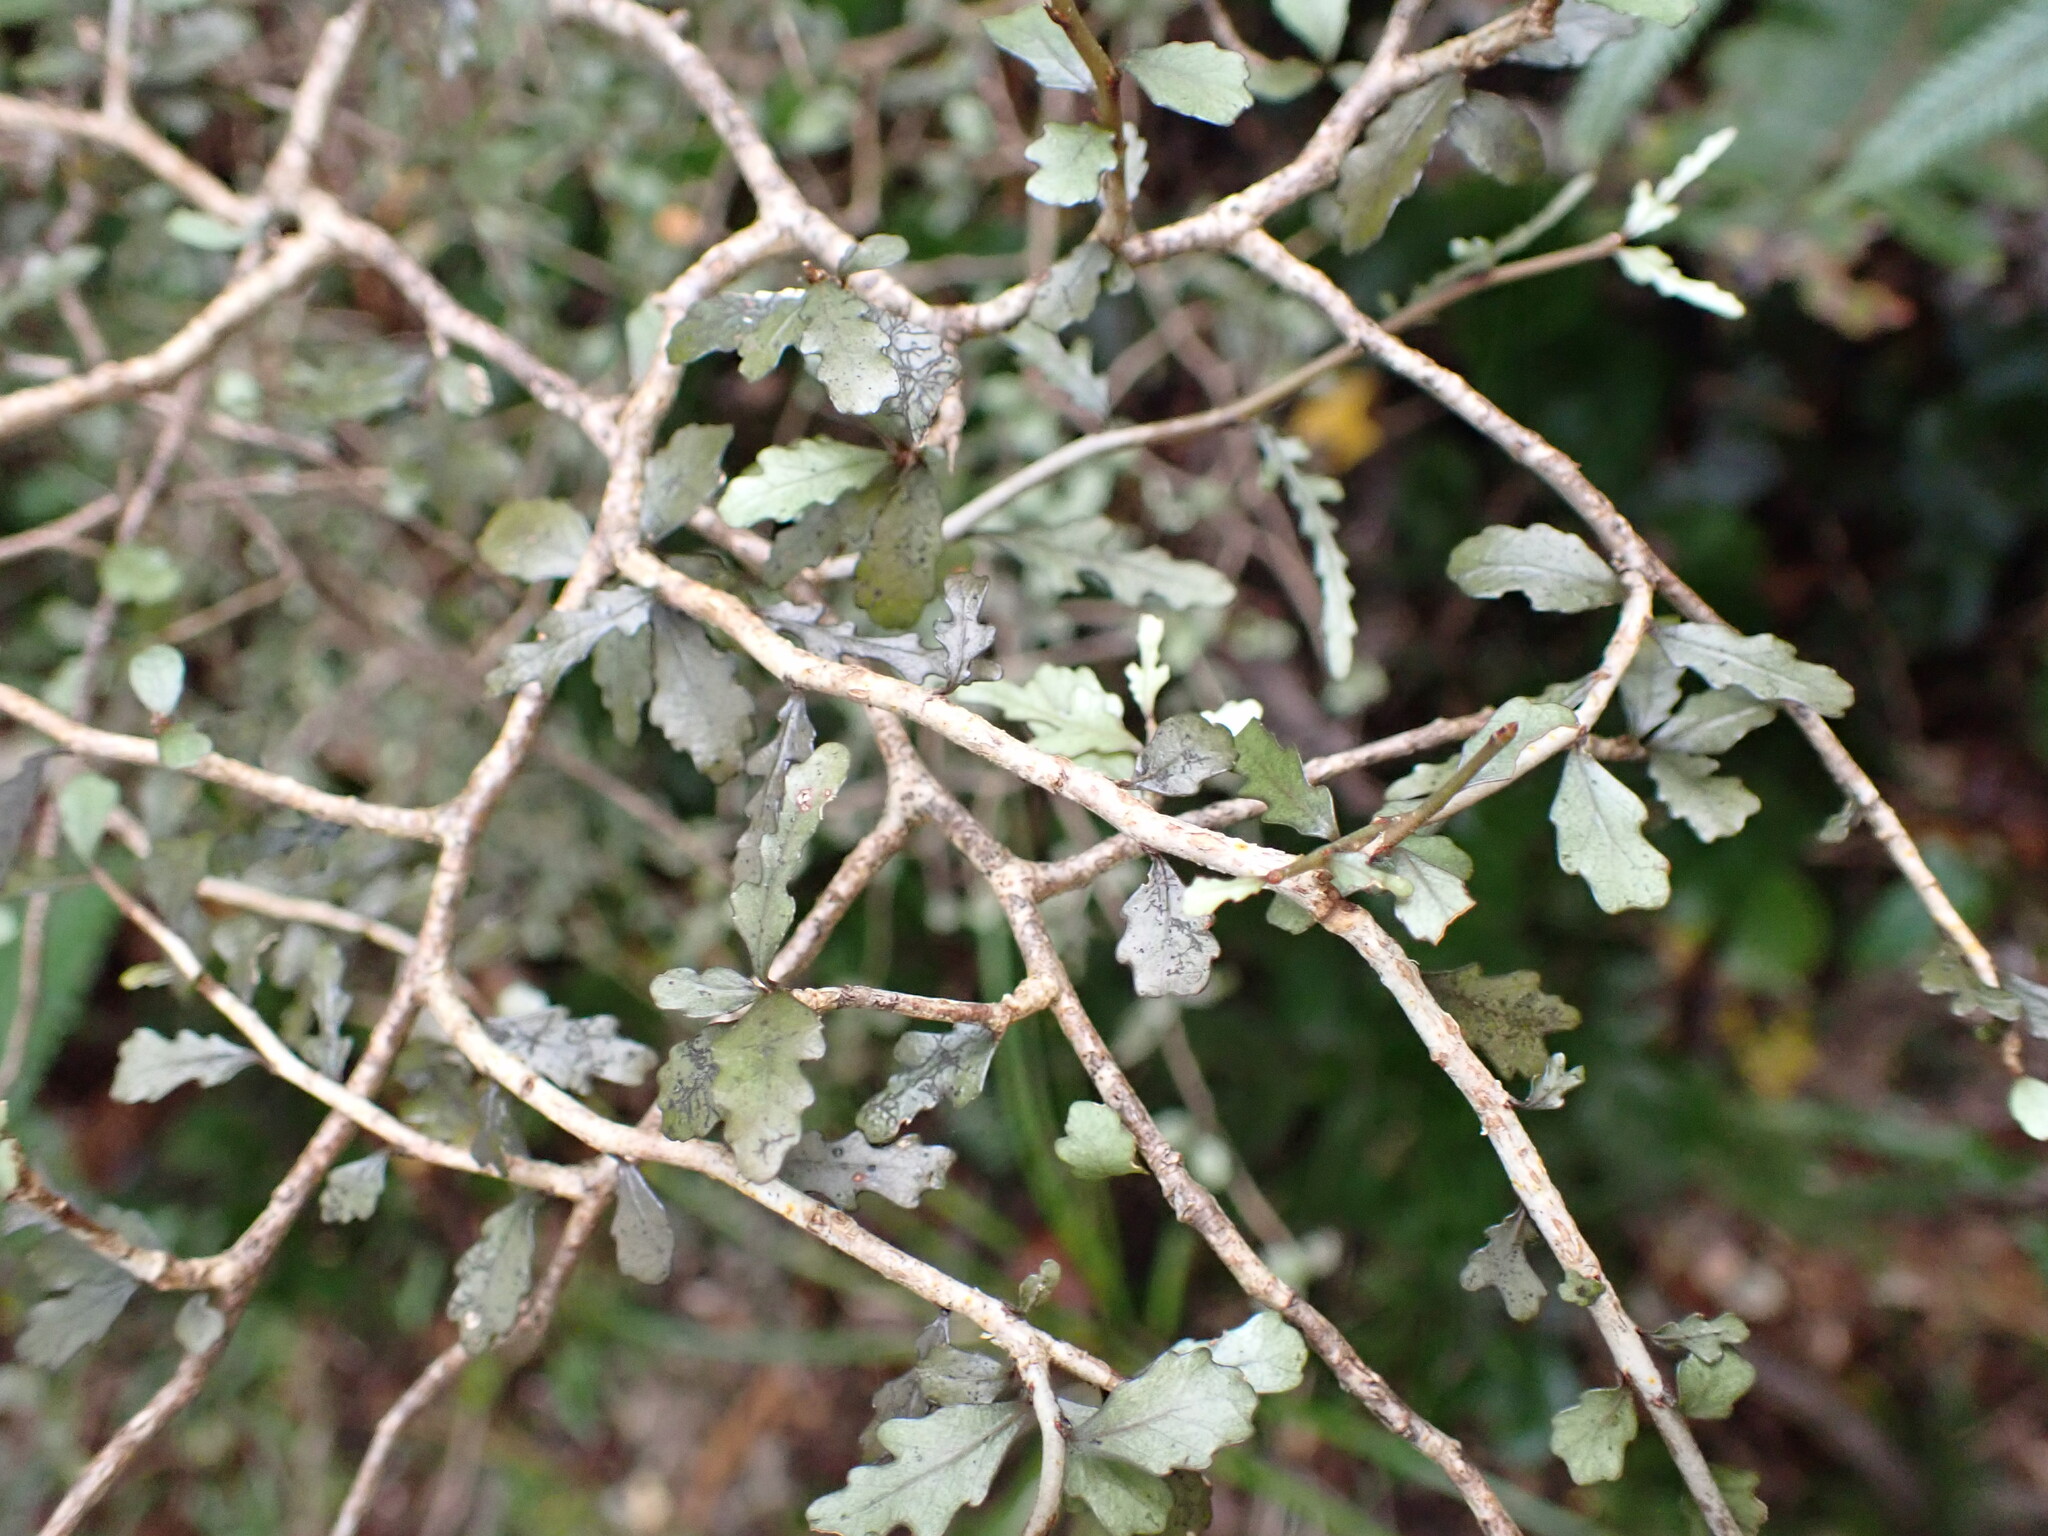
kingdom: Plantae
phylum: Tracheophyta
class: Magnoliopsida
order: Oxalidales
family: Elaeocarpaceae
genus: Elaeocarpus
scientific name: Elaeocarpus hookerianus
